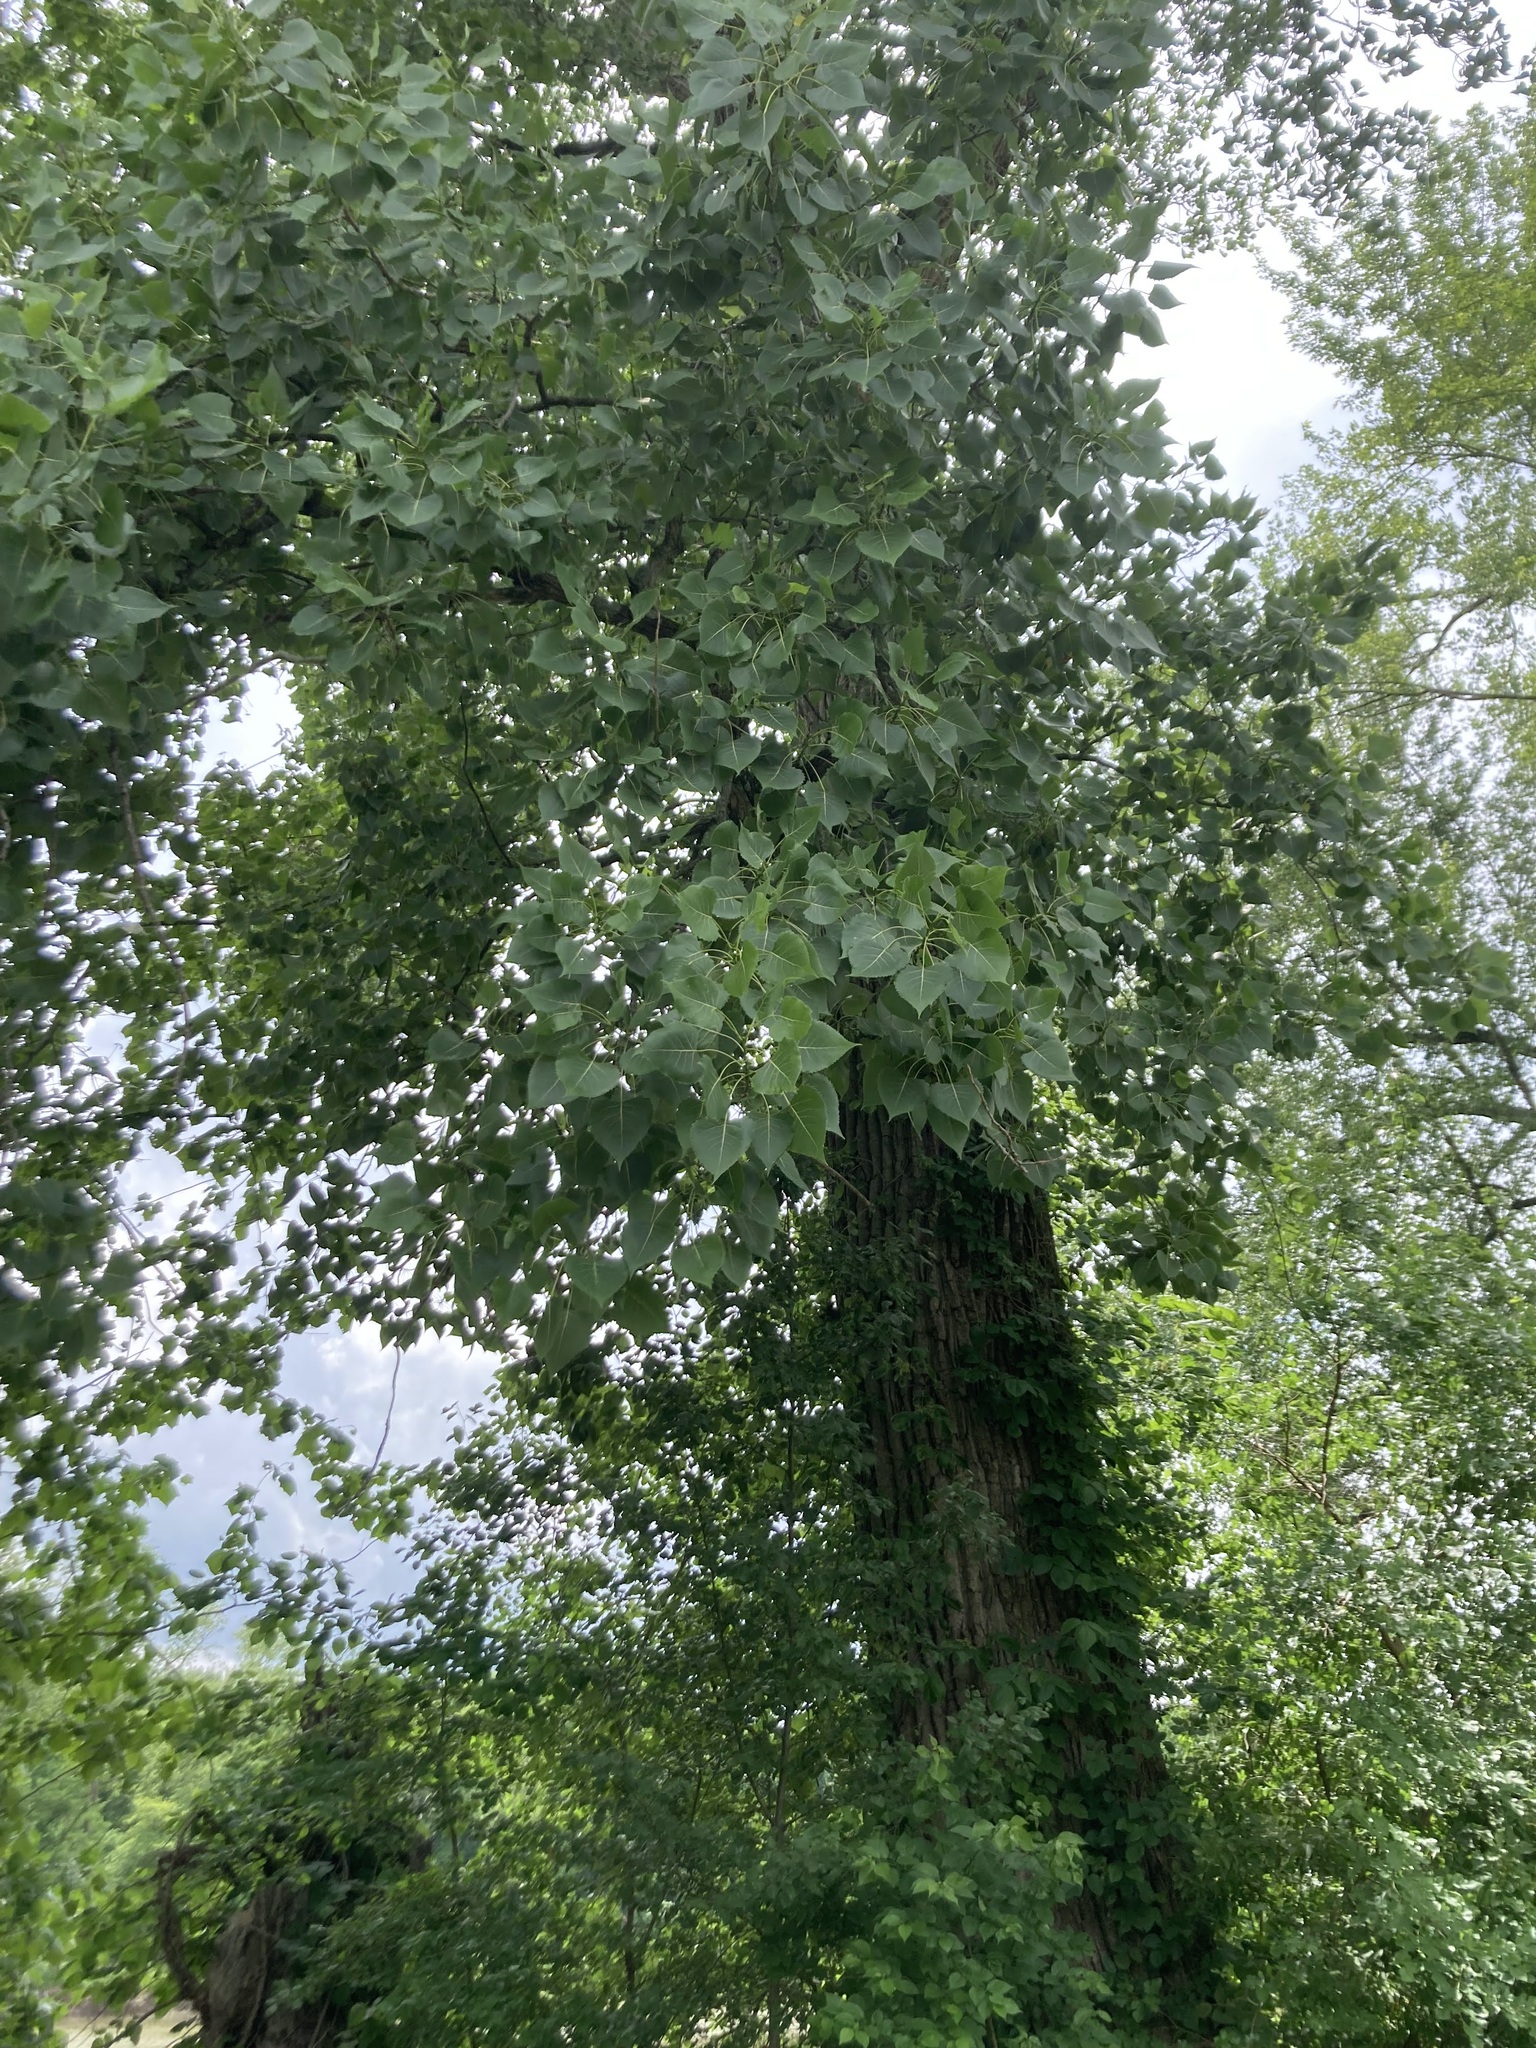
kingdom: Plantae
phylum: Tracheophyta
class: Magnoliopsida
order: Malpighiales
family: Salicaceae
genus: Populus
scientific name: Populus deltoides
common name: Eastern cottonwood
